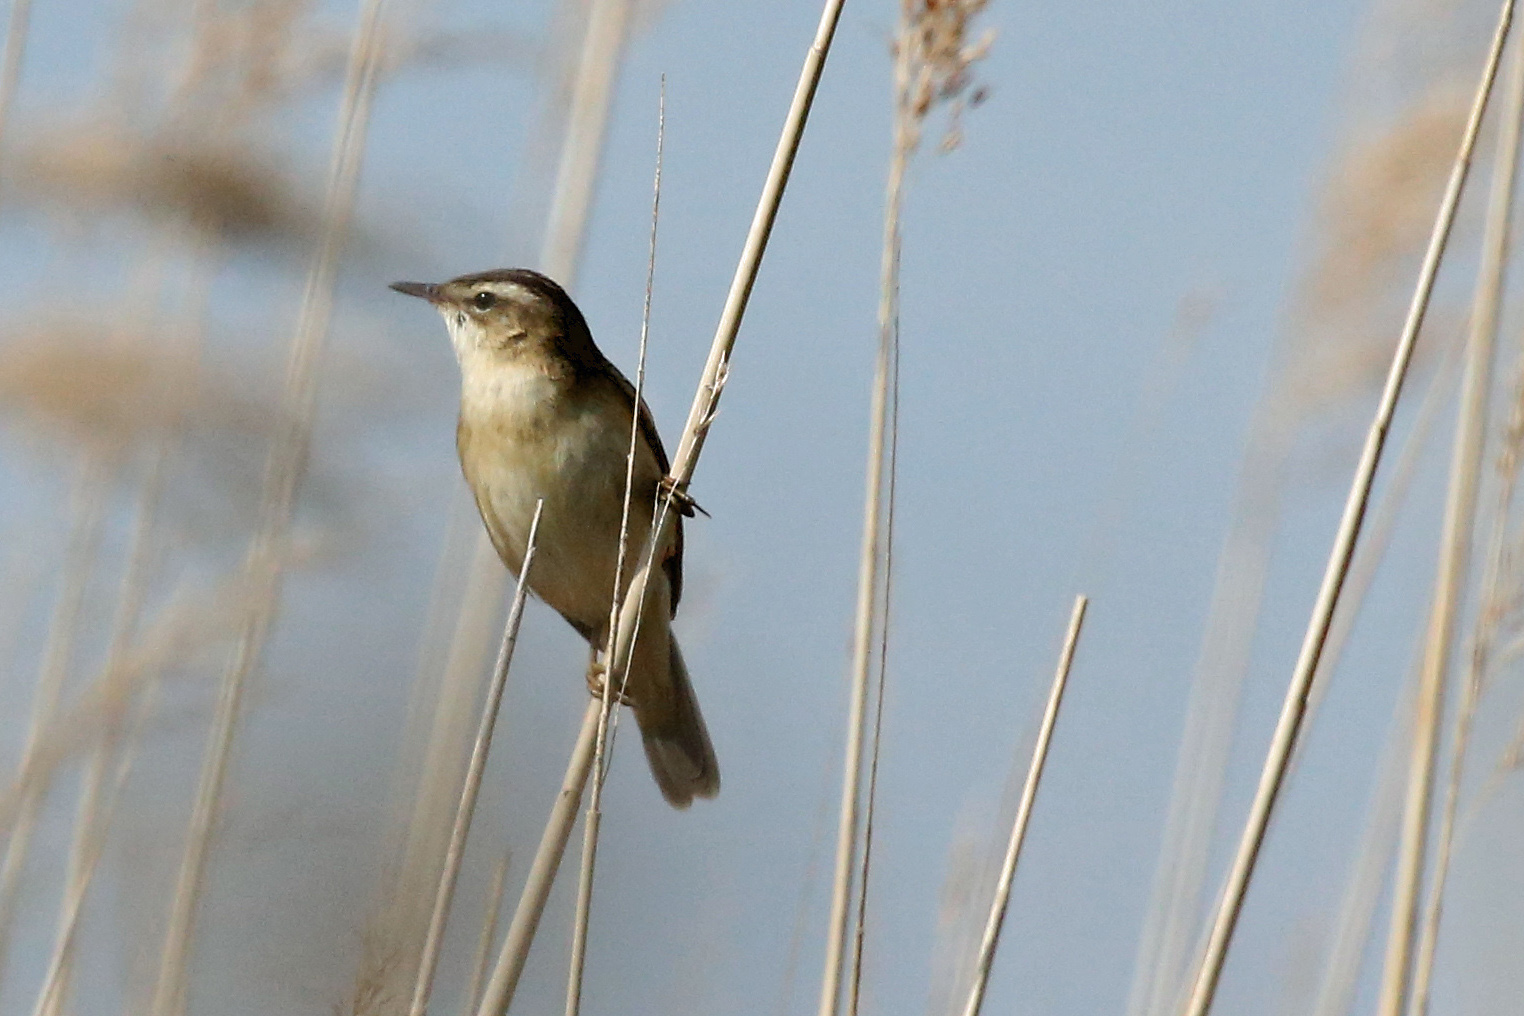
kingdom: Animalia
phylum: Chordata
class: Aves
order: Passeriformes
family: Acrocephalidae
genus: Acrocephalus
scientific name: Acrocephalus schoenobaenus
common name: Sedge warbler
